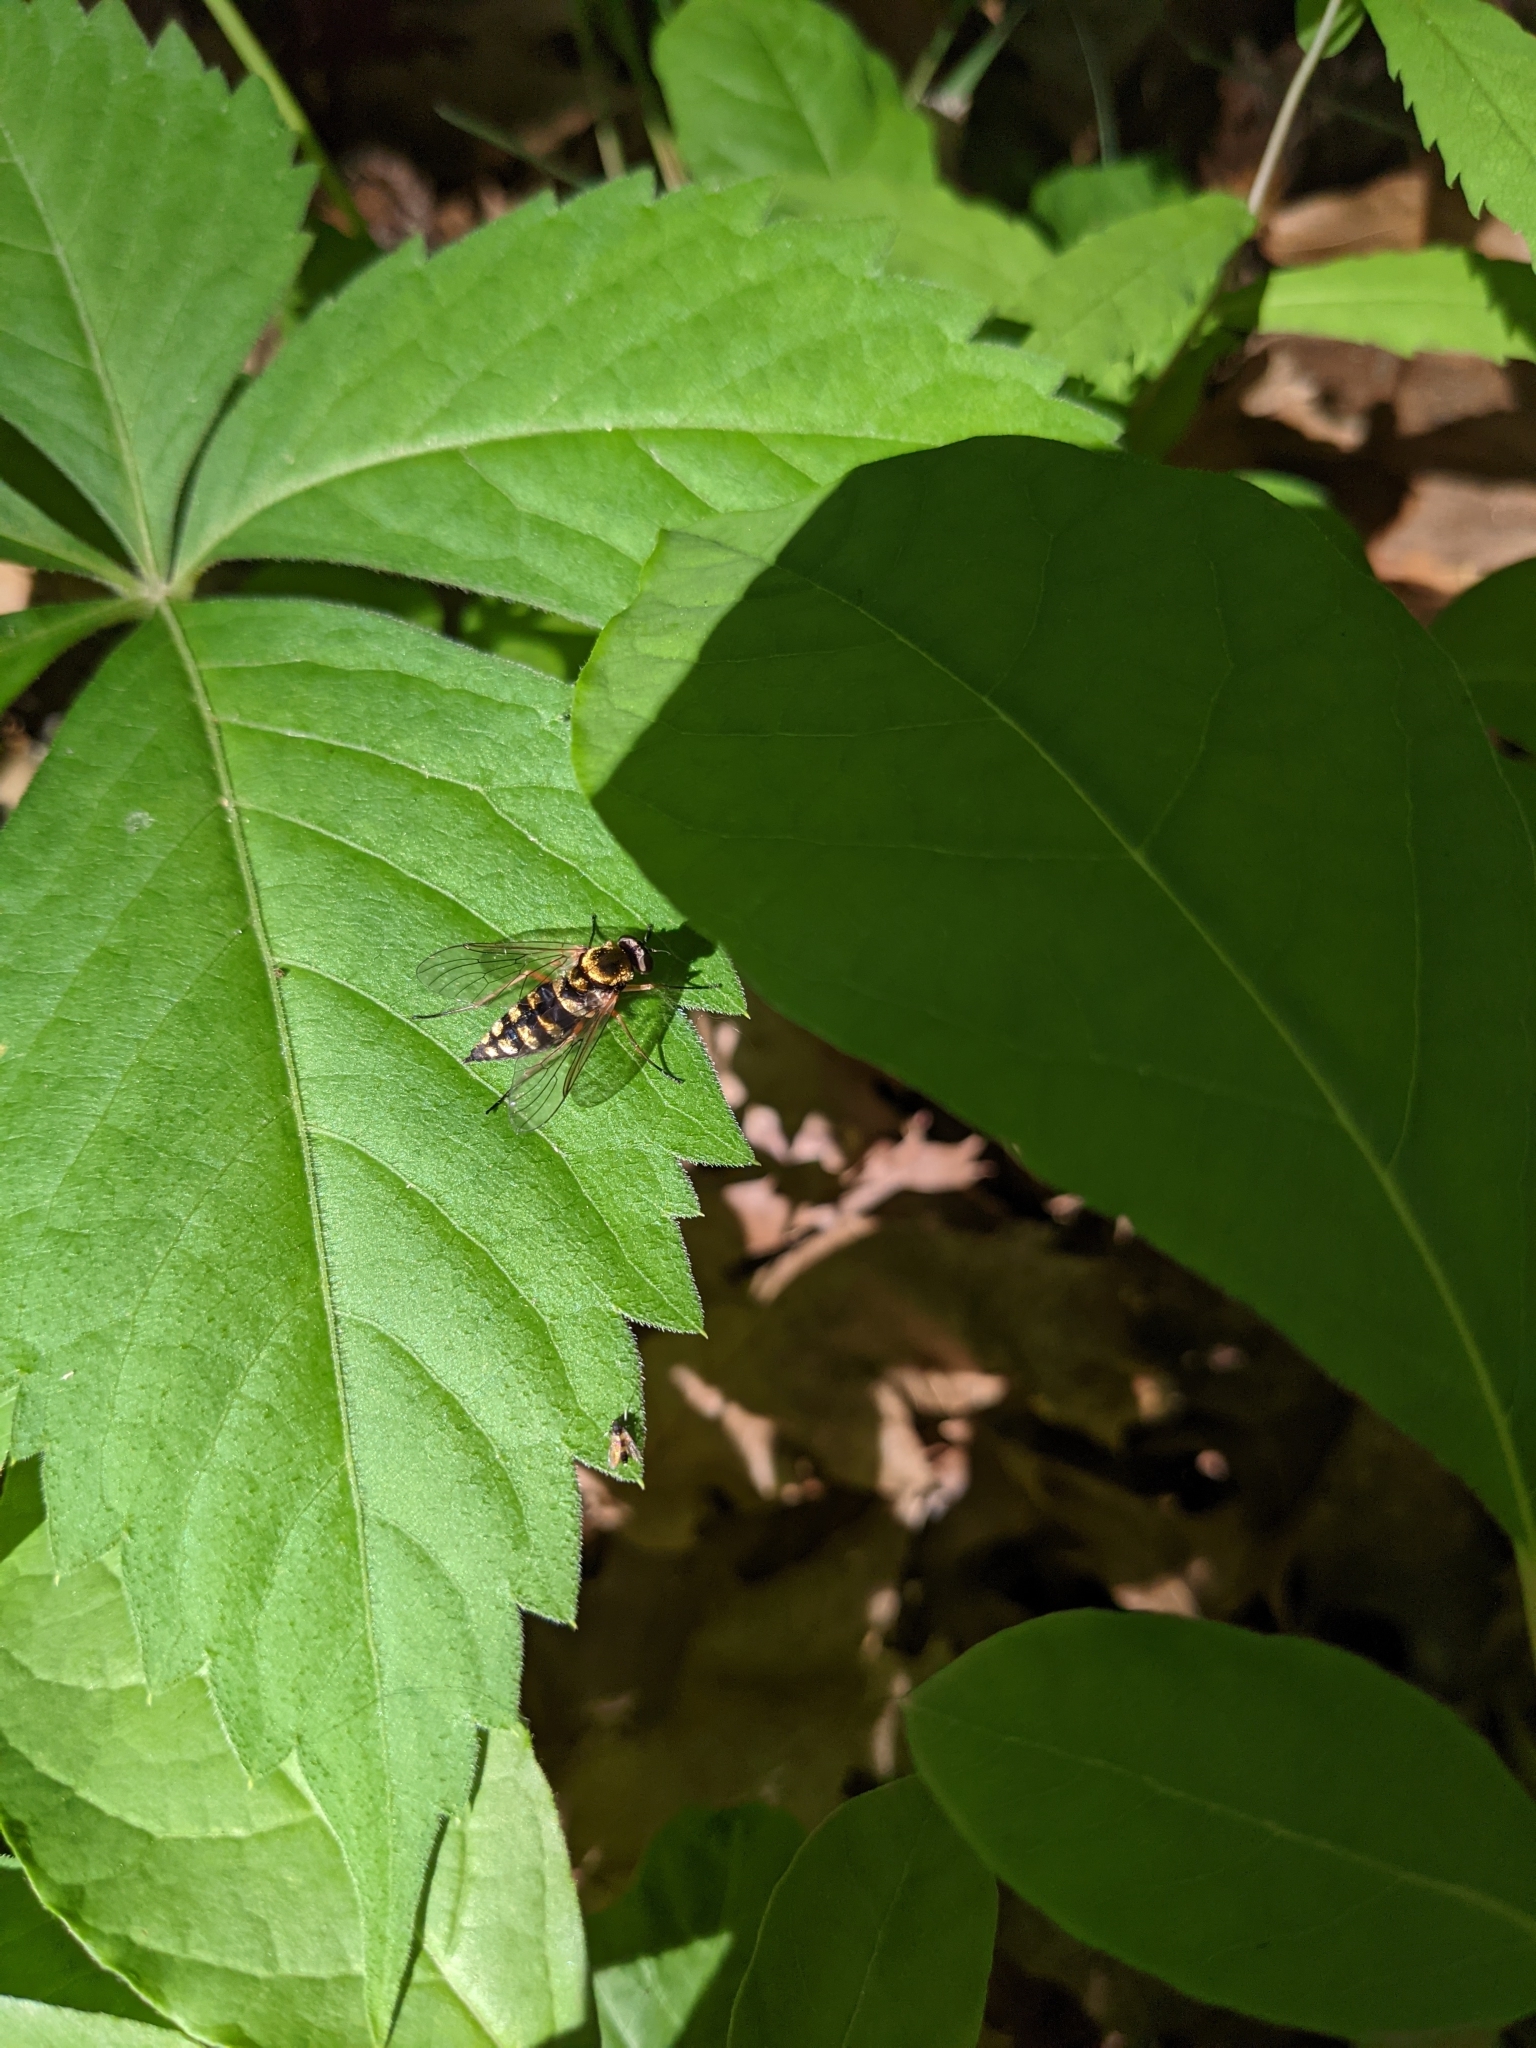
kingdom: Animalia
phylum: Arthropoda
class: Insecta
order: Diptera
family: Rhagionidae
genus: Chrysopilus
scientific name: Chrysopilus ornatus
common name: Ornate snipe fly
